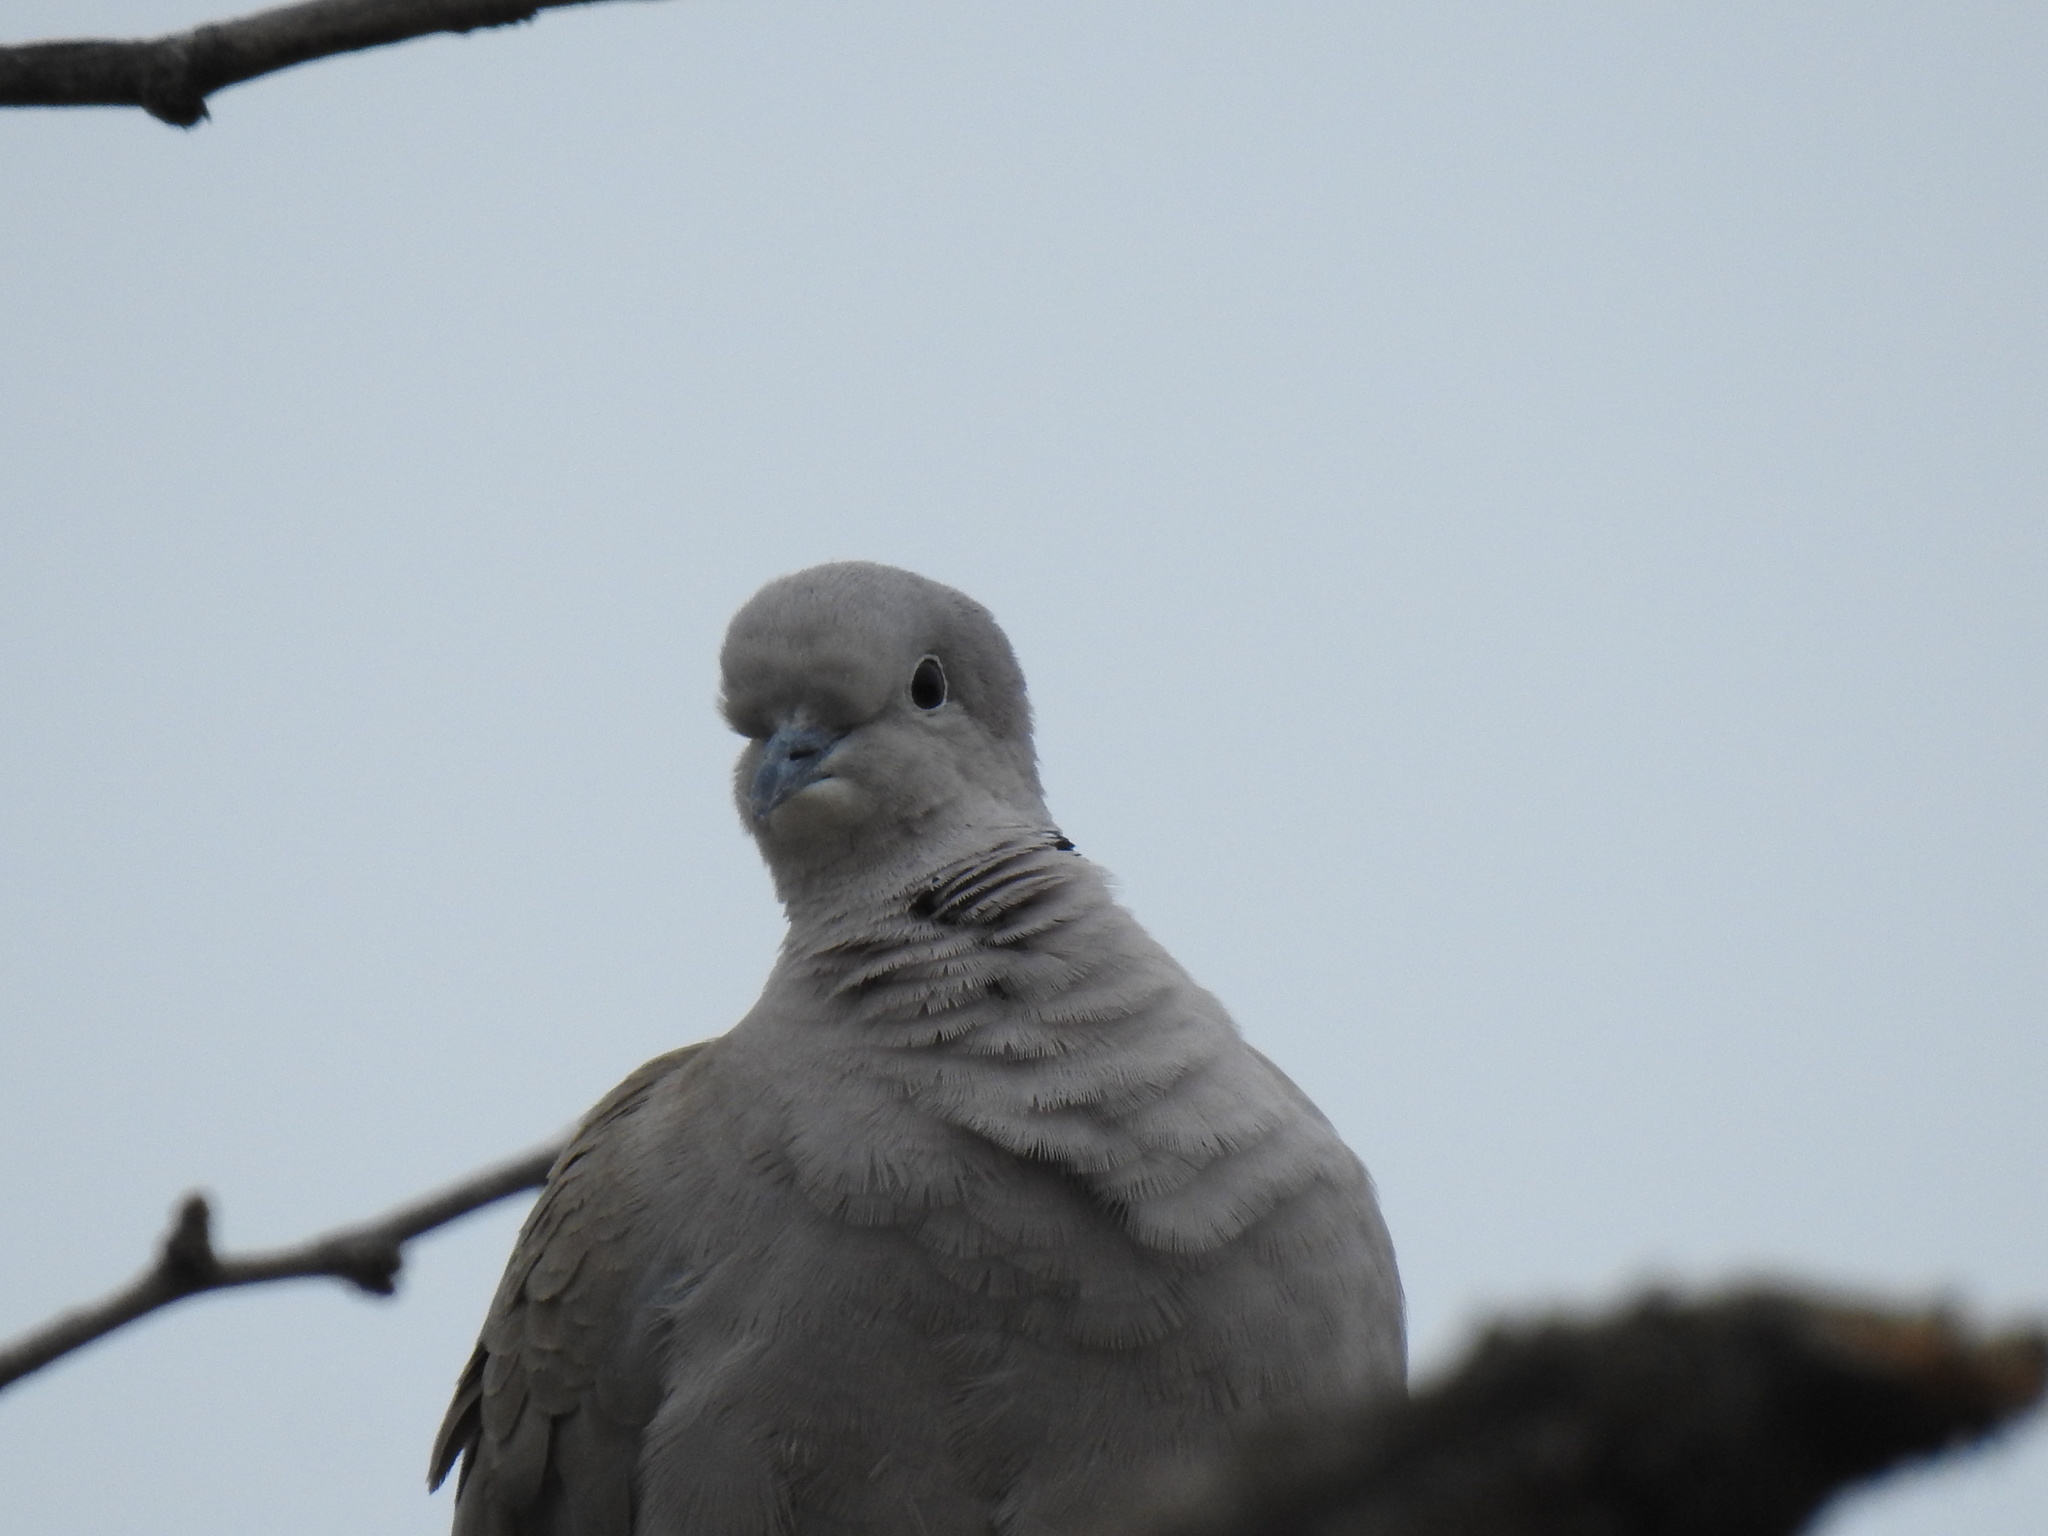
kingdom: Animalia
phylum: Chordata
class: Aves
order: Columbiformes
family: Columbidae
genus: Streptopelia
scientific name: Streptopelia decaocto
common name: Eurasian collared dove
